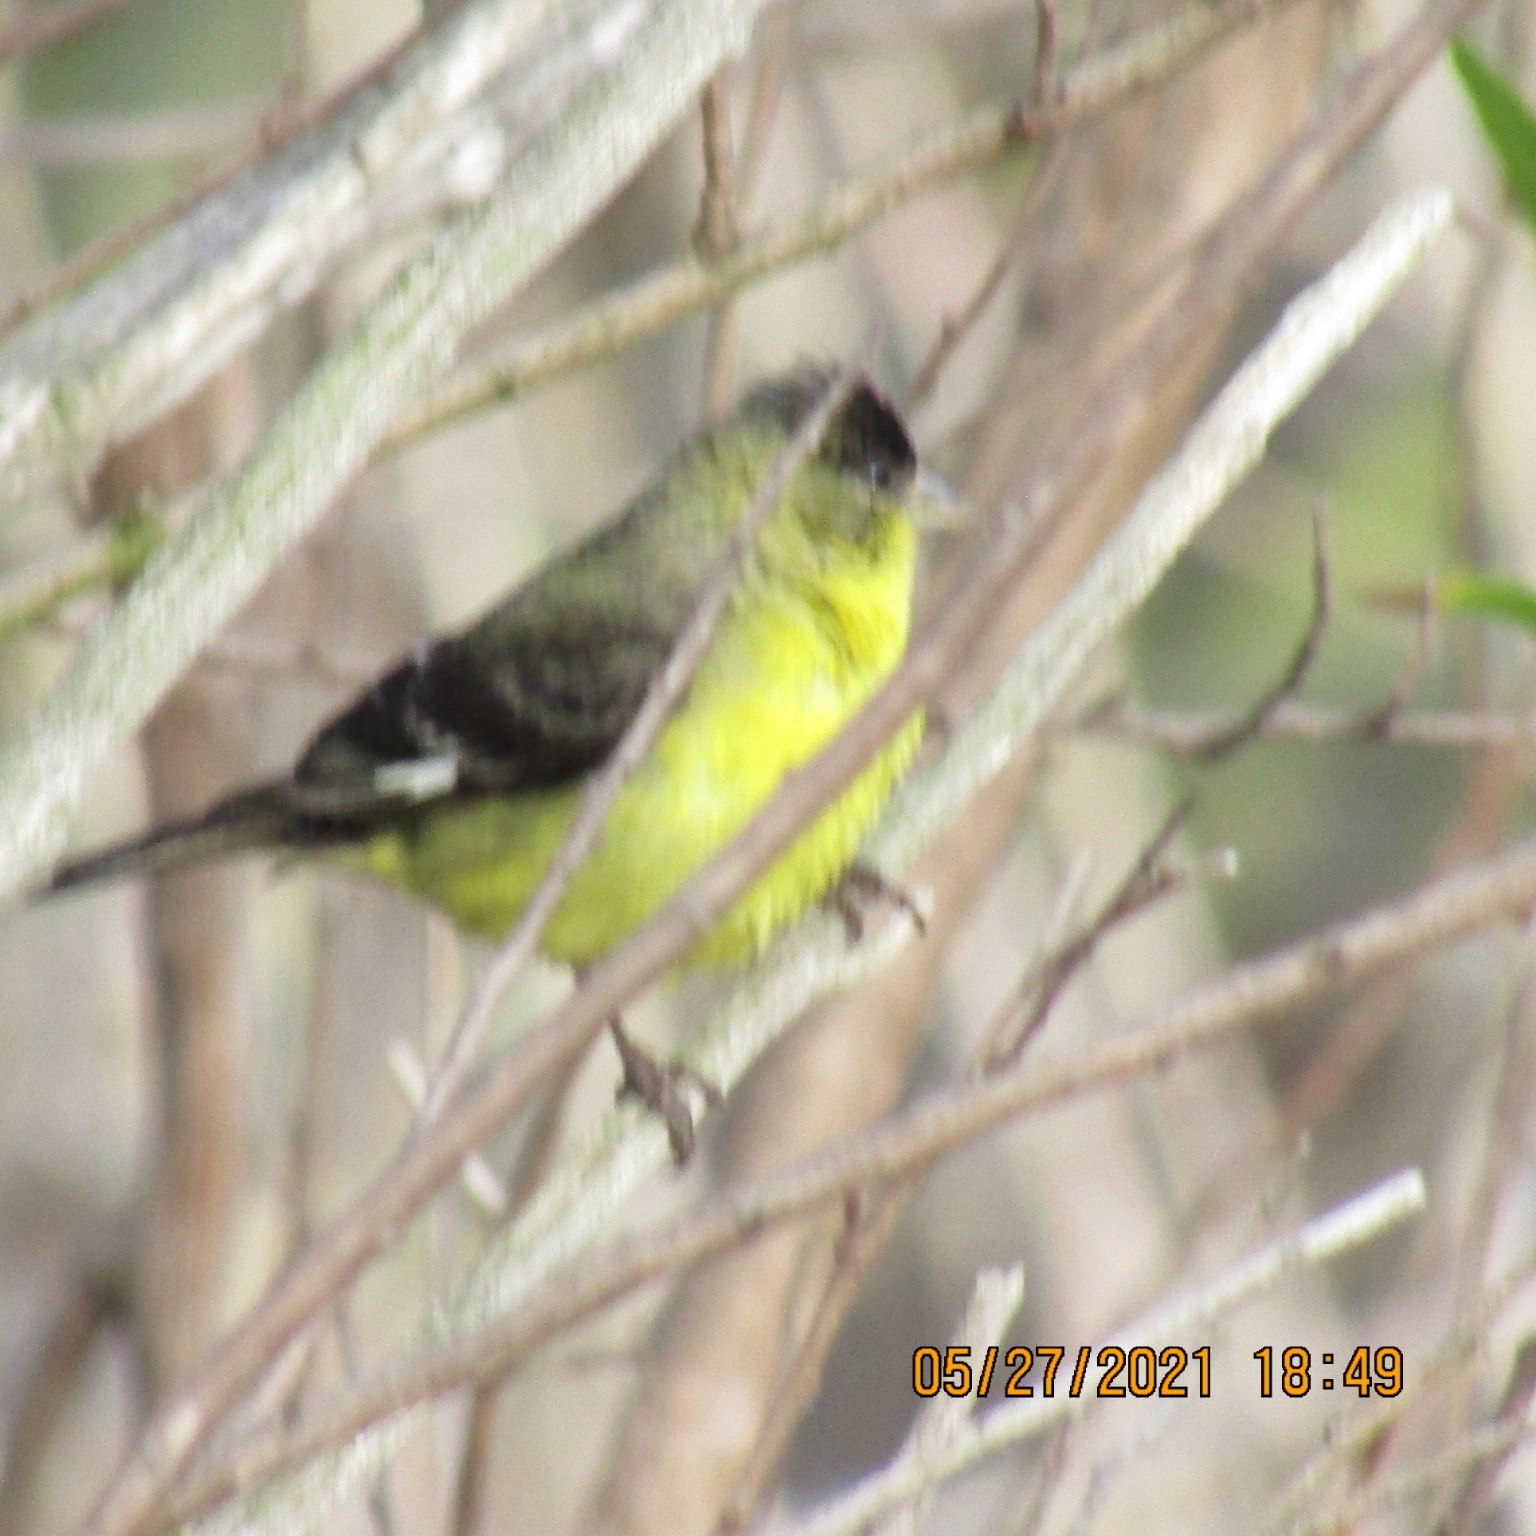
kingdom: Animalia
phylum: Chordata
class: Aves
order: Passeriformes
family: Fringillidae
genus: Spinus
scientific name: Spinus psaltria
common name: Lesser goldfinch
